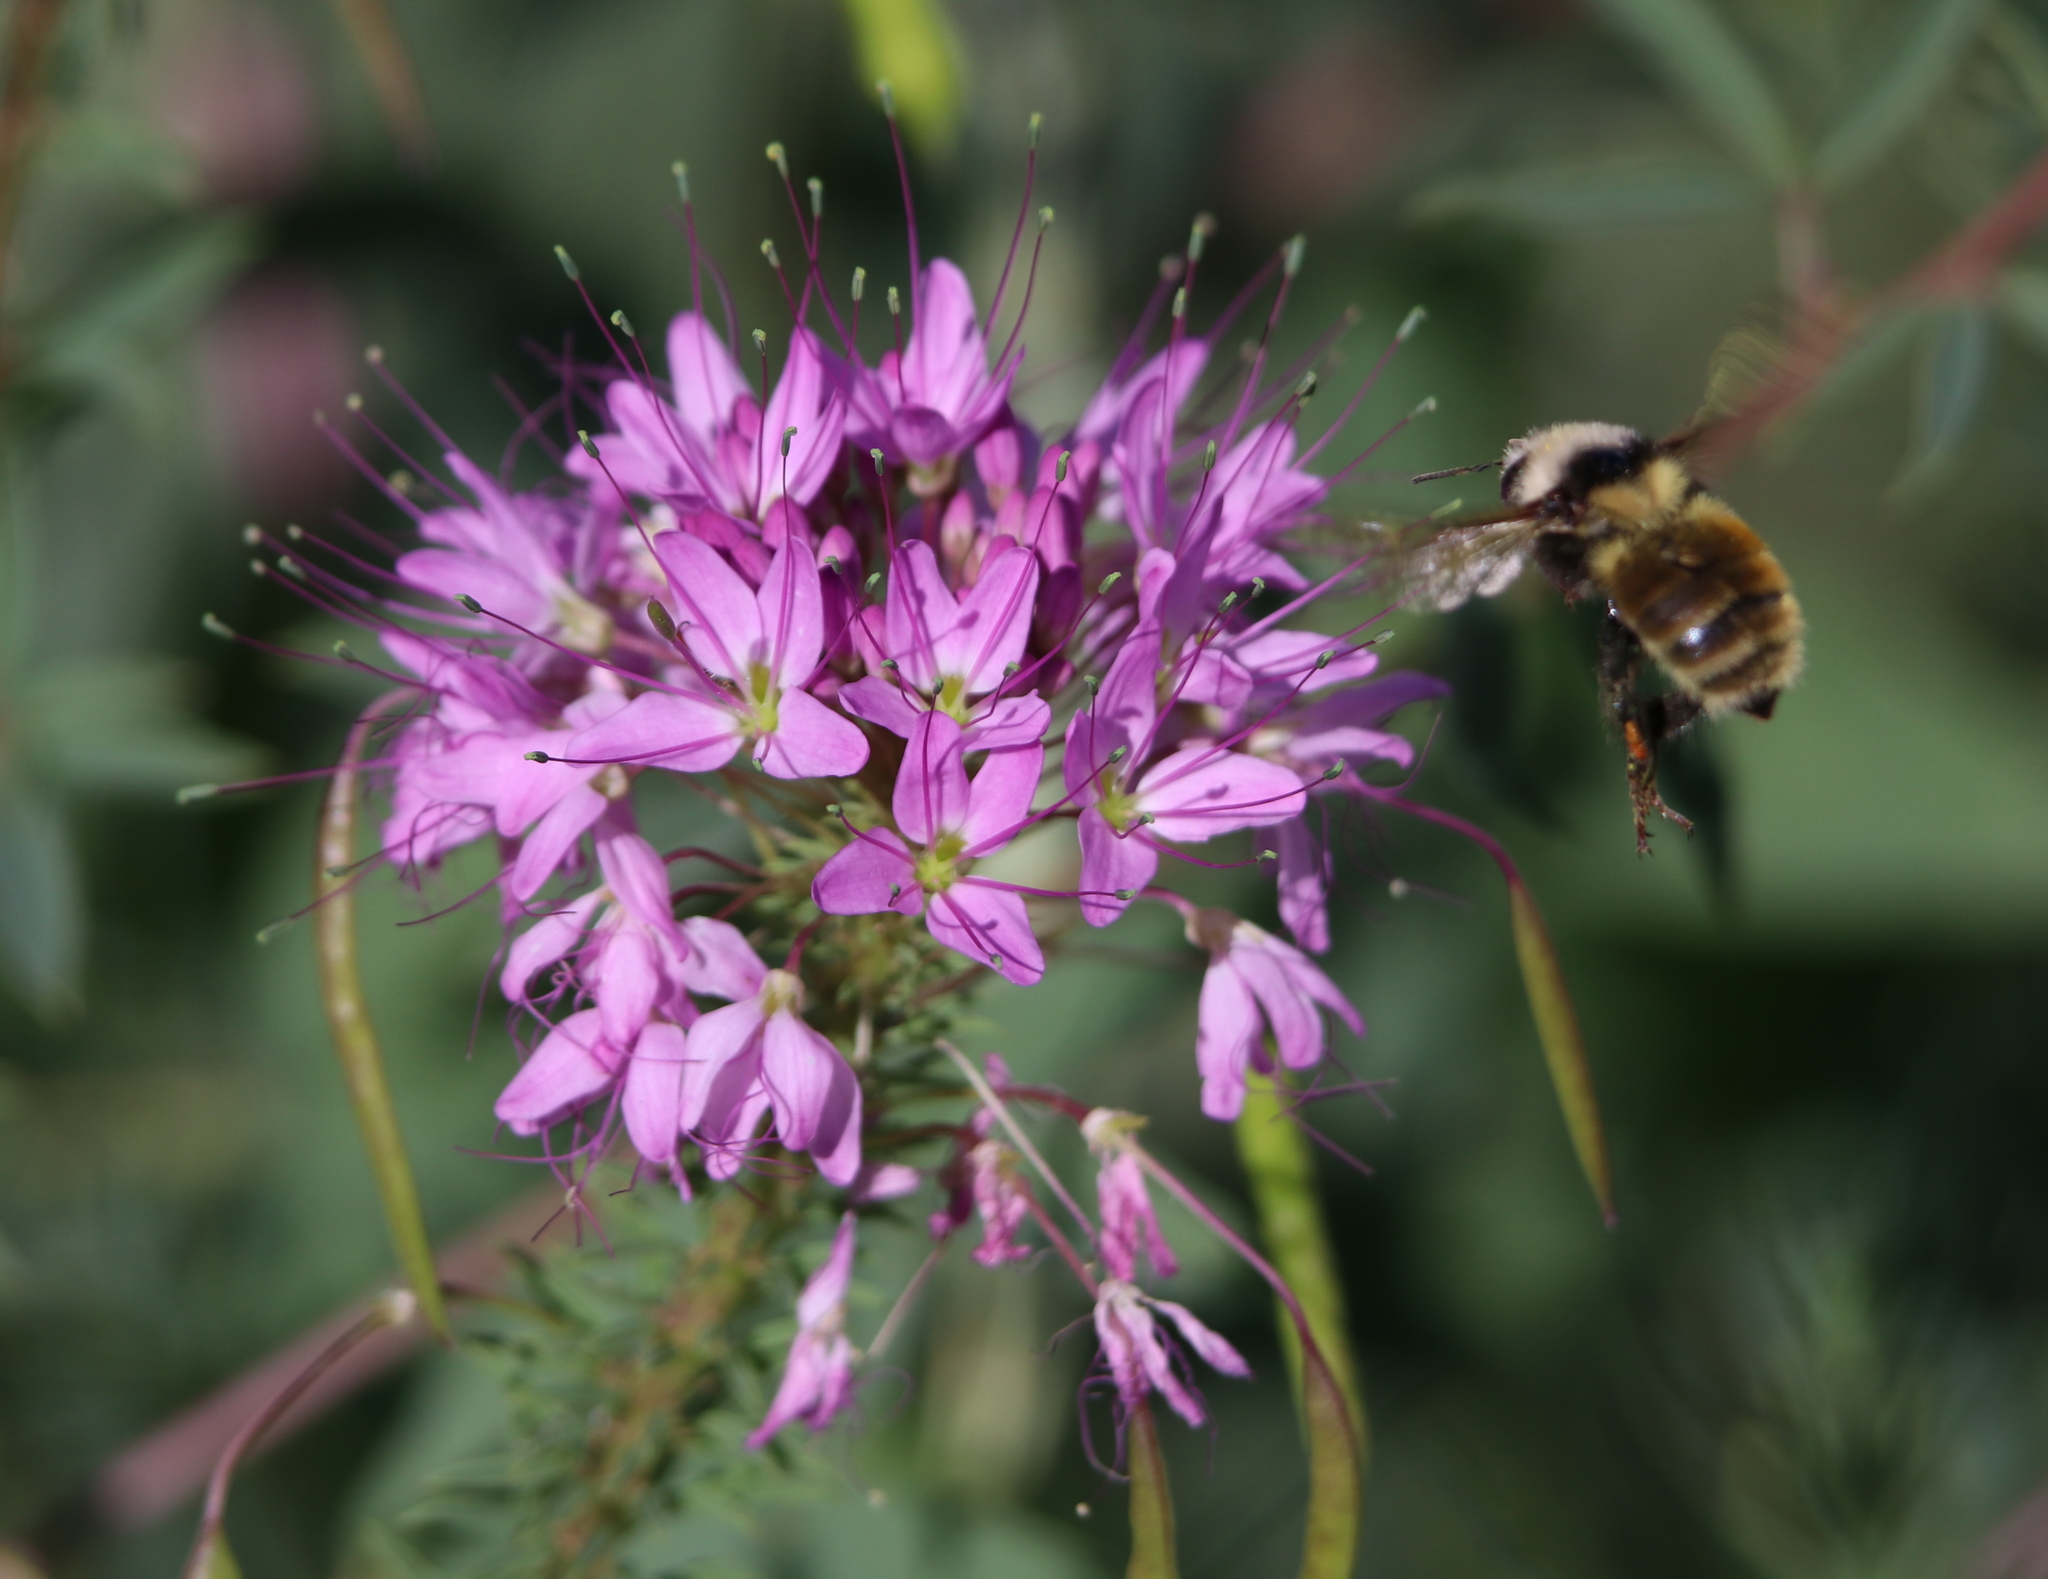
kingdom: Animalia
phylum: Arthropoda
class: Insecta
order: Hymenoptera
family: Apidae
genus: Bombus
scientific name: Bombus appositus
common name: White-shouldered bumble bee
